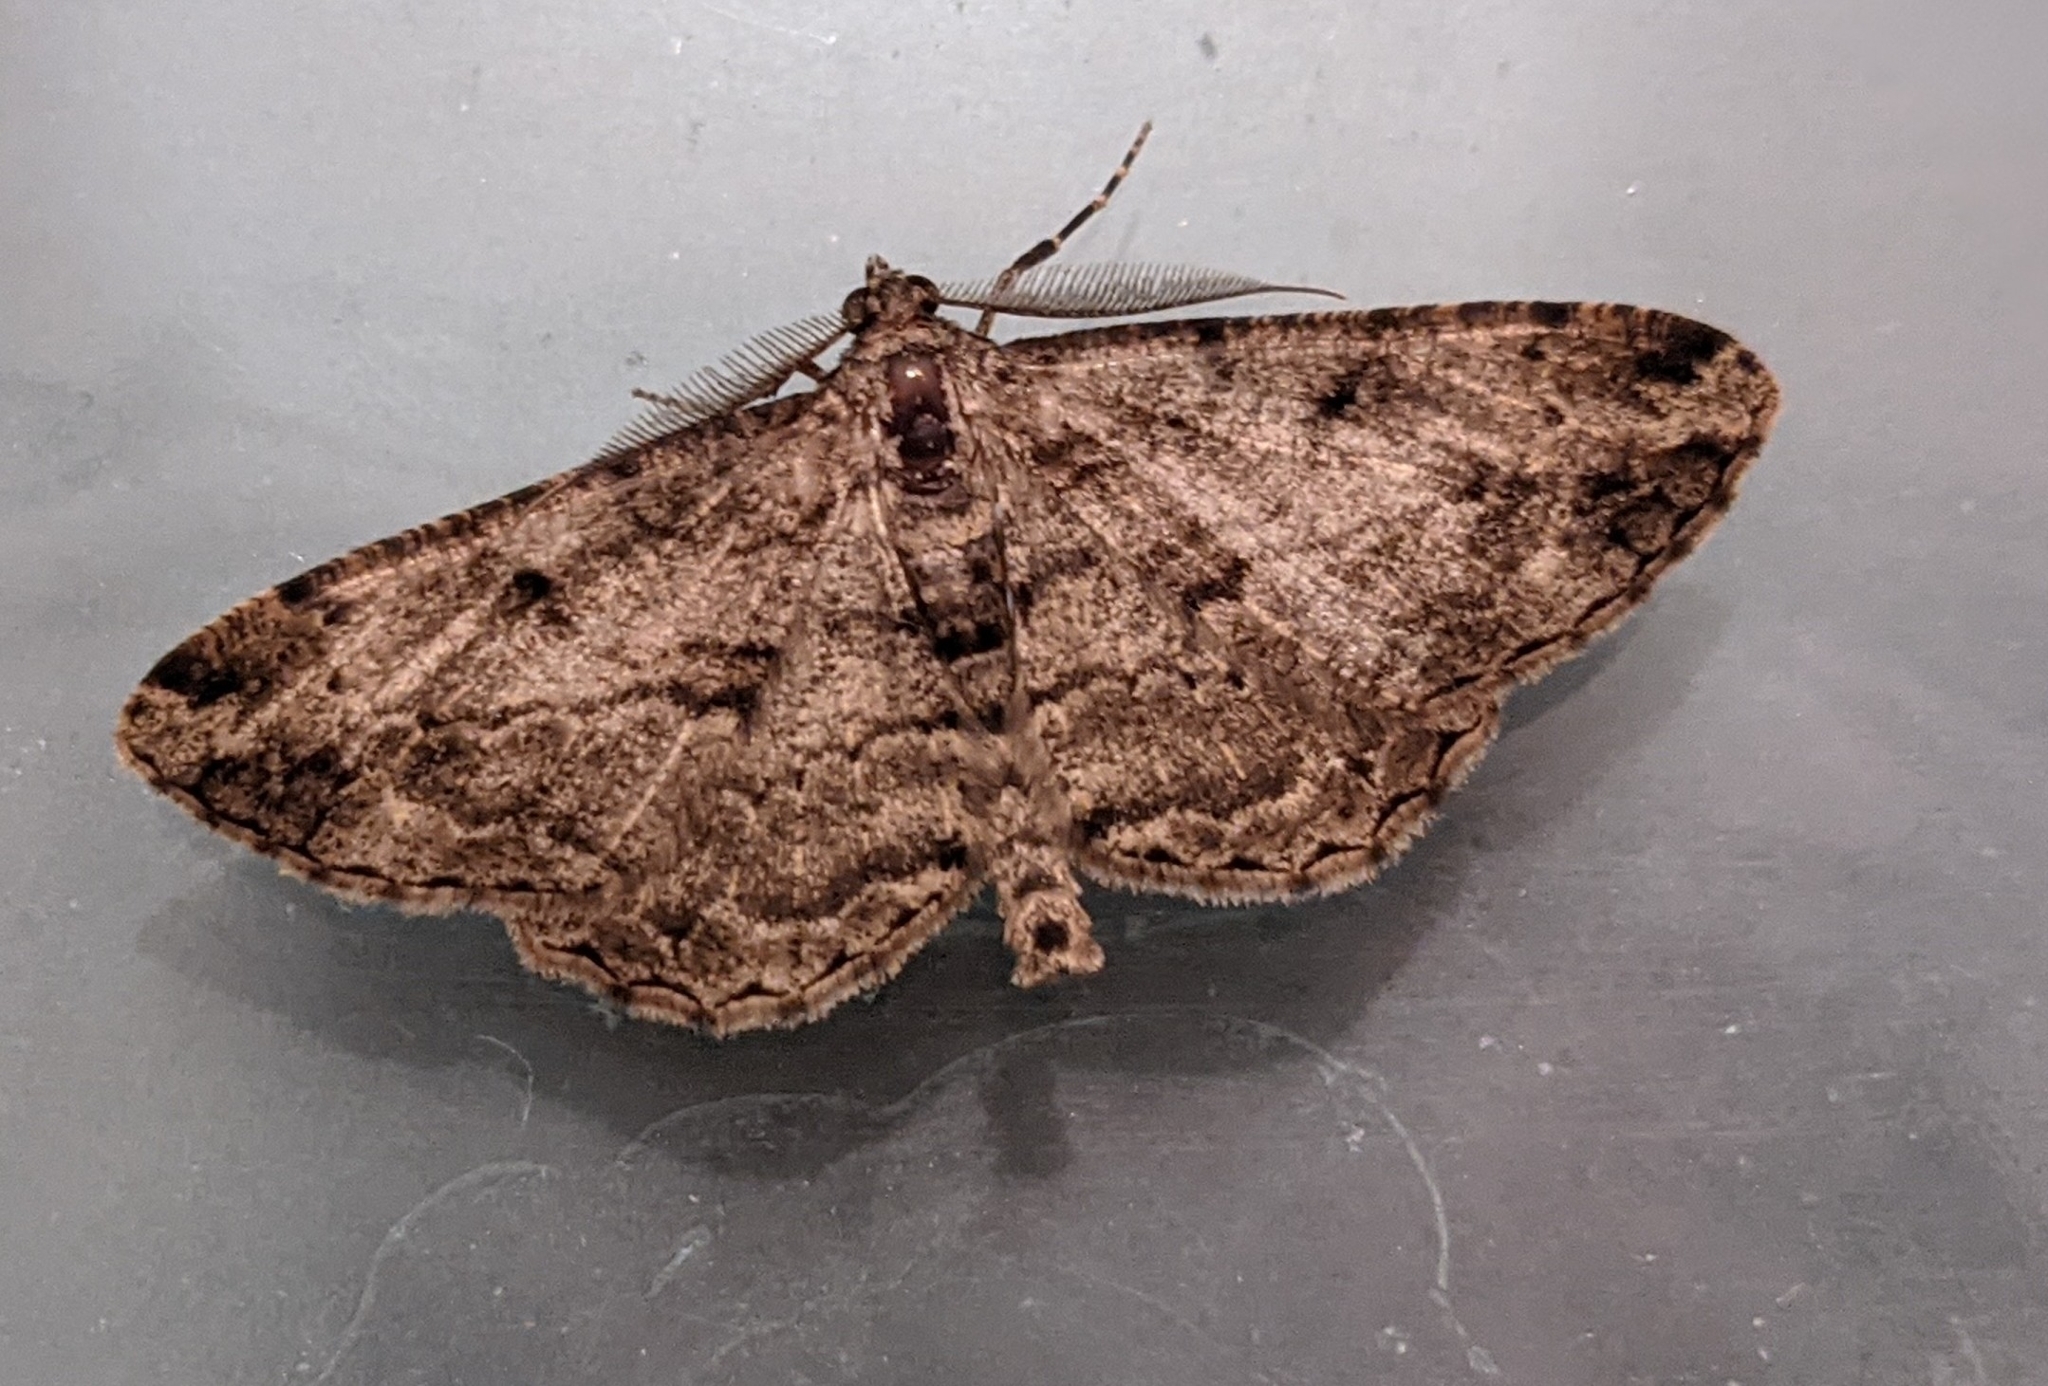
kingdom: Animalia
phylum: Arthropoda
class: Insecta
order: Lepidoptera
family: Geometridae
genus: Peribatodes
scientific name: Peribatodes rhomboidaria
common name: Willow beauty
